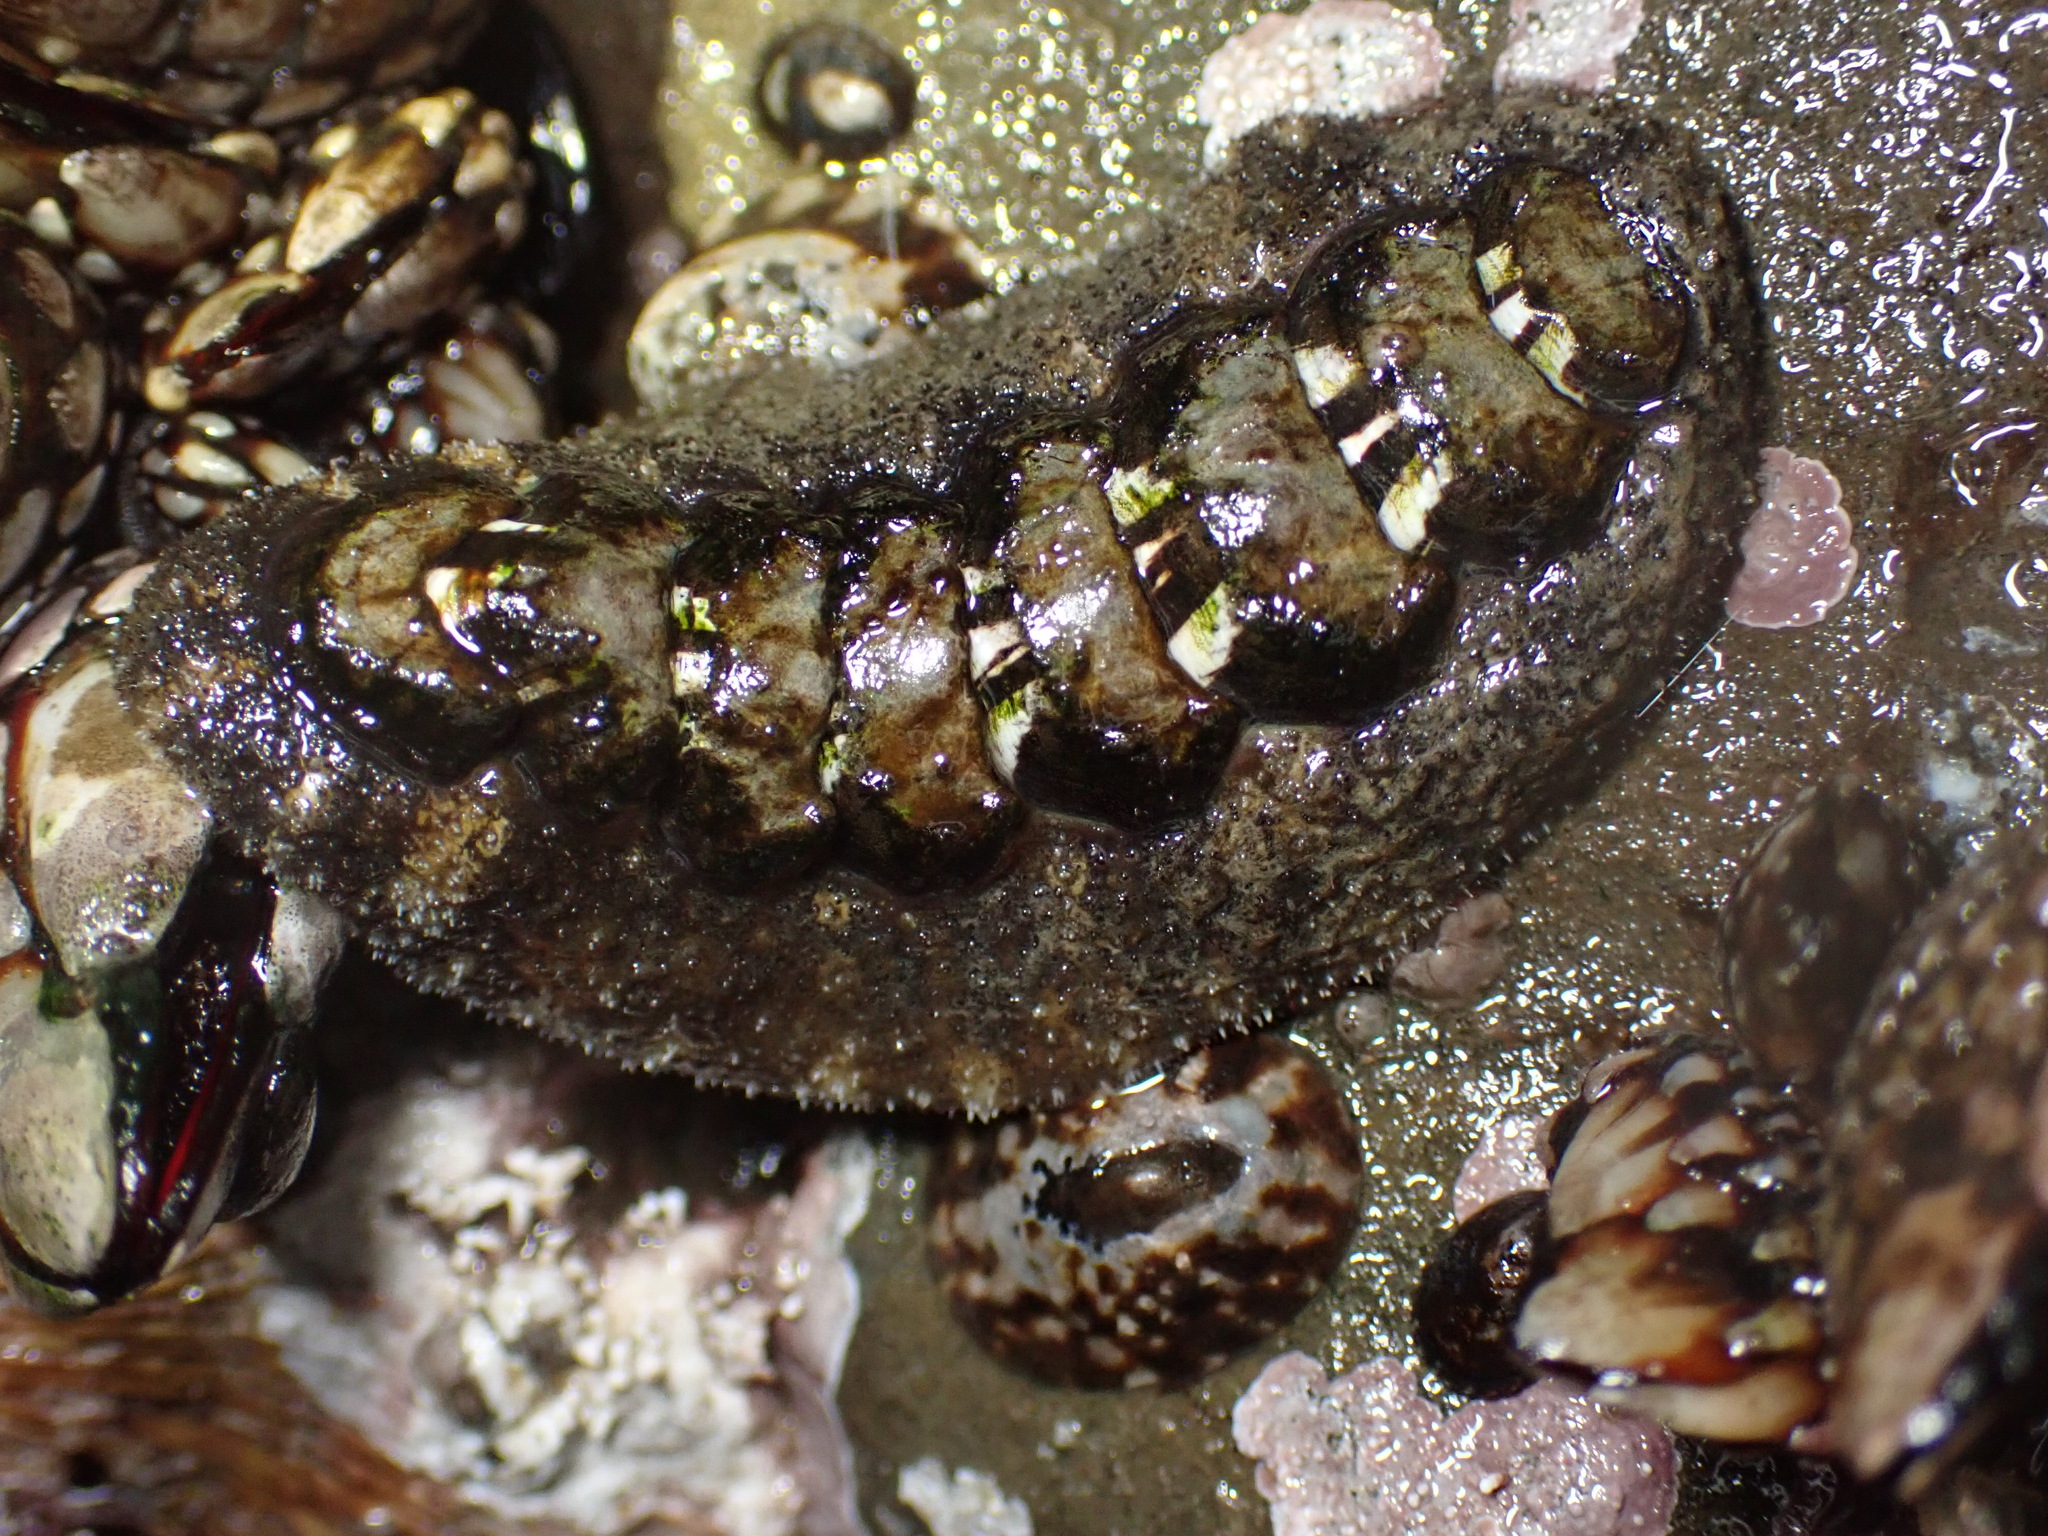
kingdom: Animalia
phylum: Mollusca
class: Polyplacophora
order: Chitonida
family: Tonicellidae
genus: Nuttallina
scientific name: Nuttallina californica
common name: California nuttall chiton
